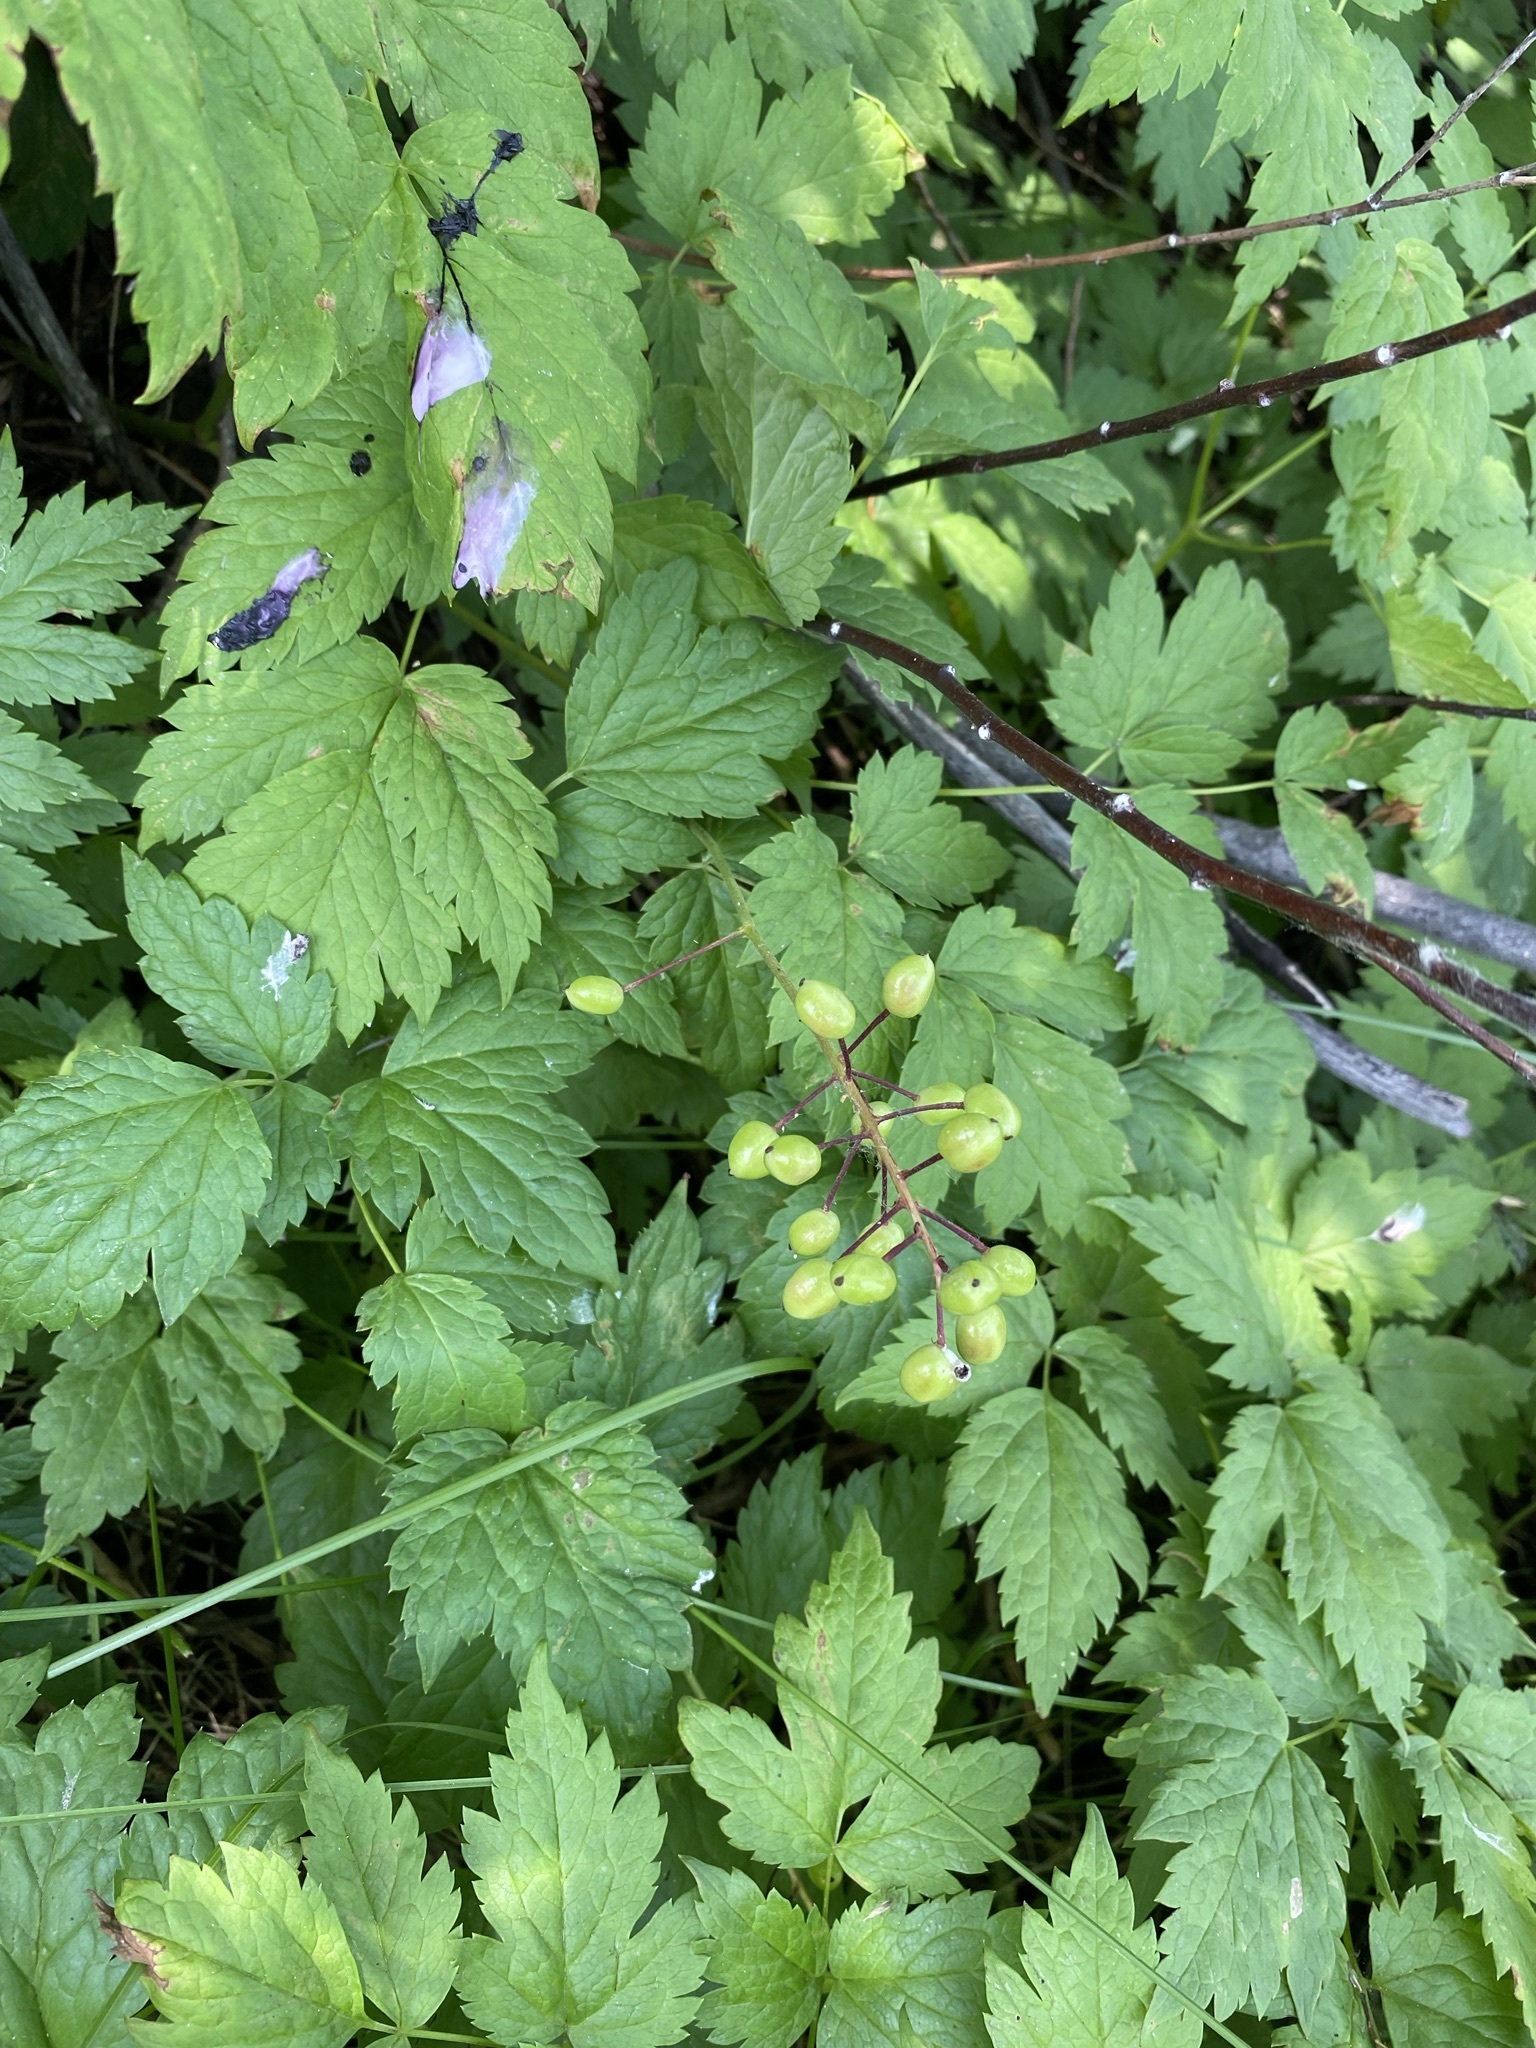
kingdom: Plantae
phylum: Tracheophyta
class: Magnoliopsida
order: Ranunculales
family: Ranunculaceae
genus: Actaea
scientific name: Actaea rubra
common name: Red baneberry
